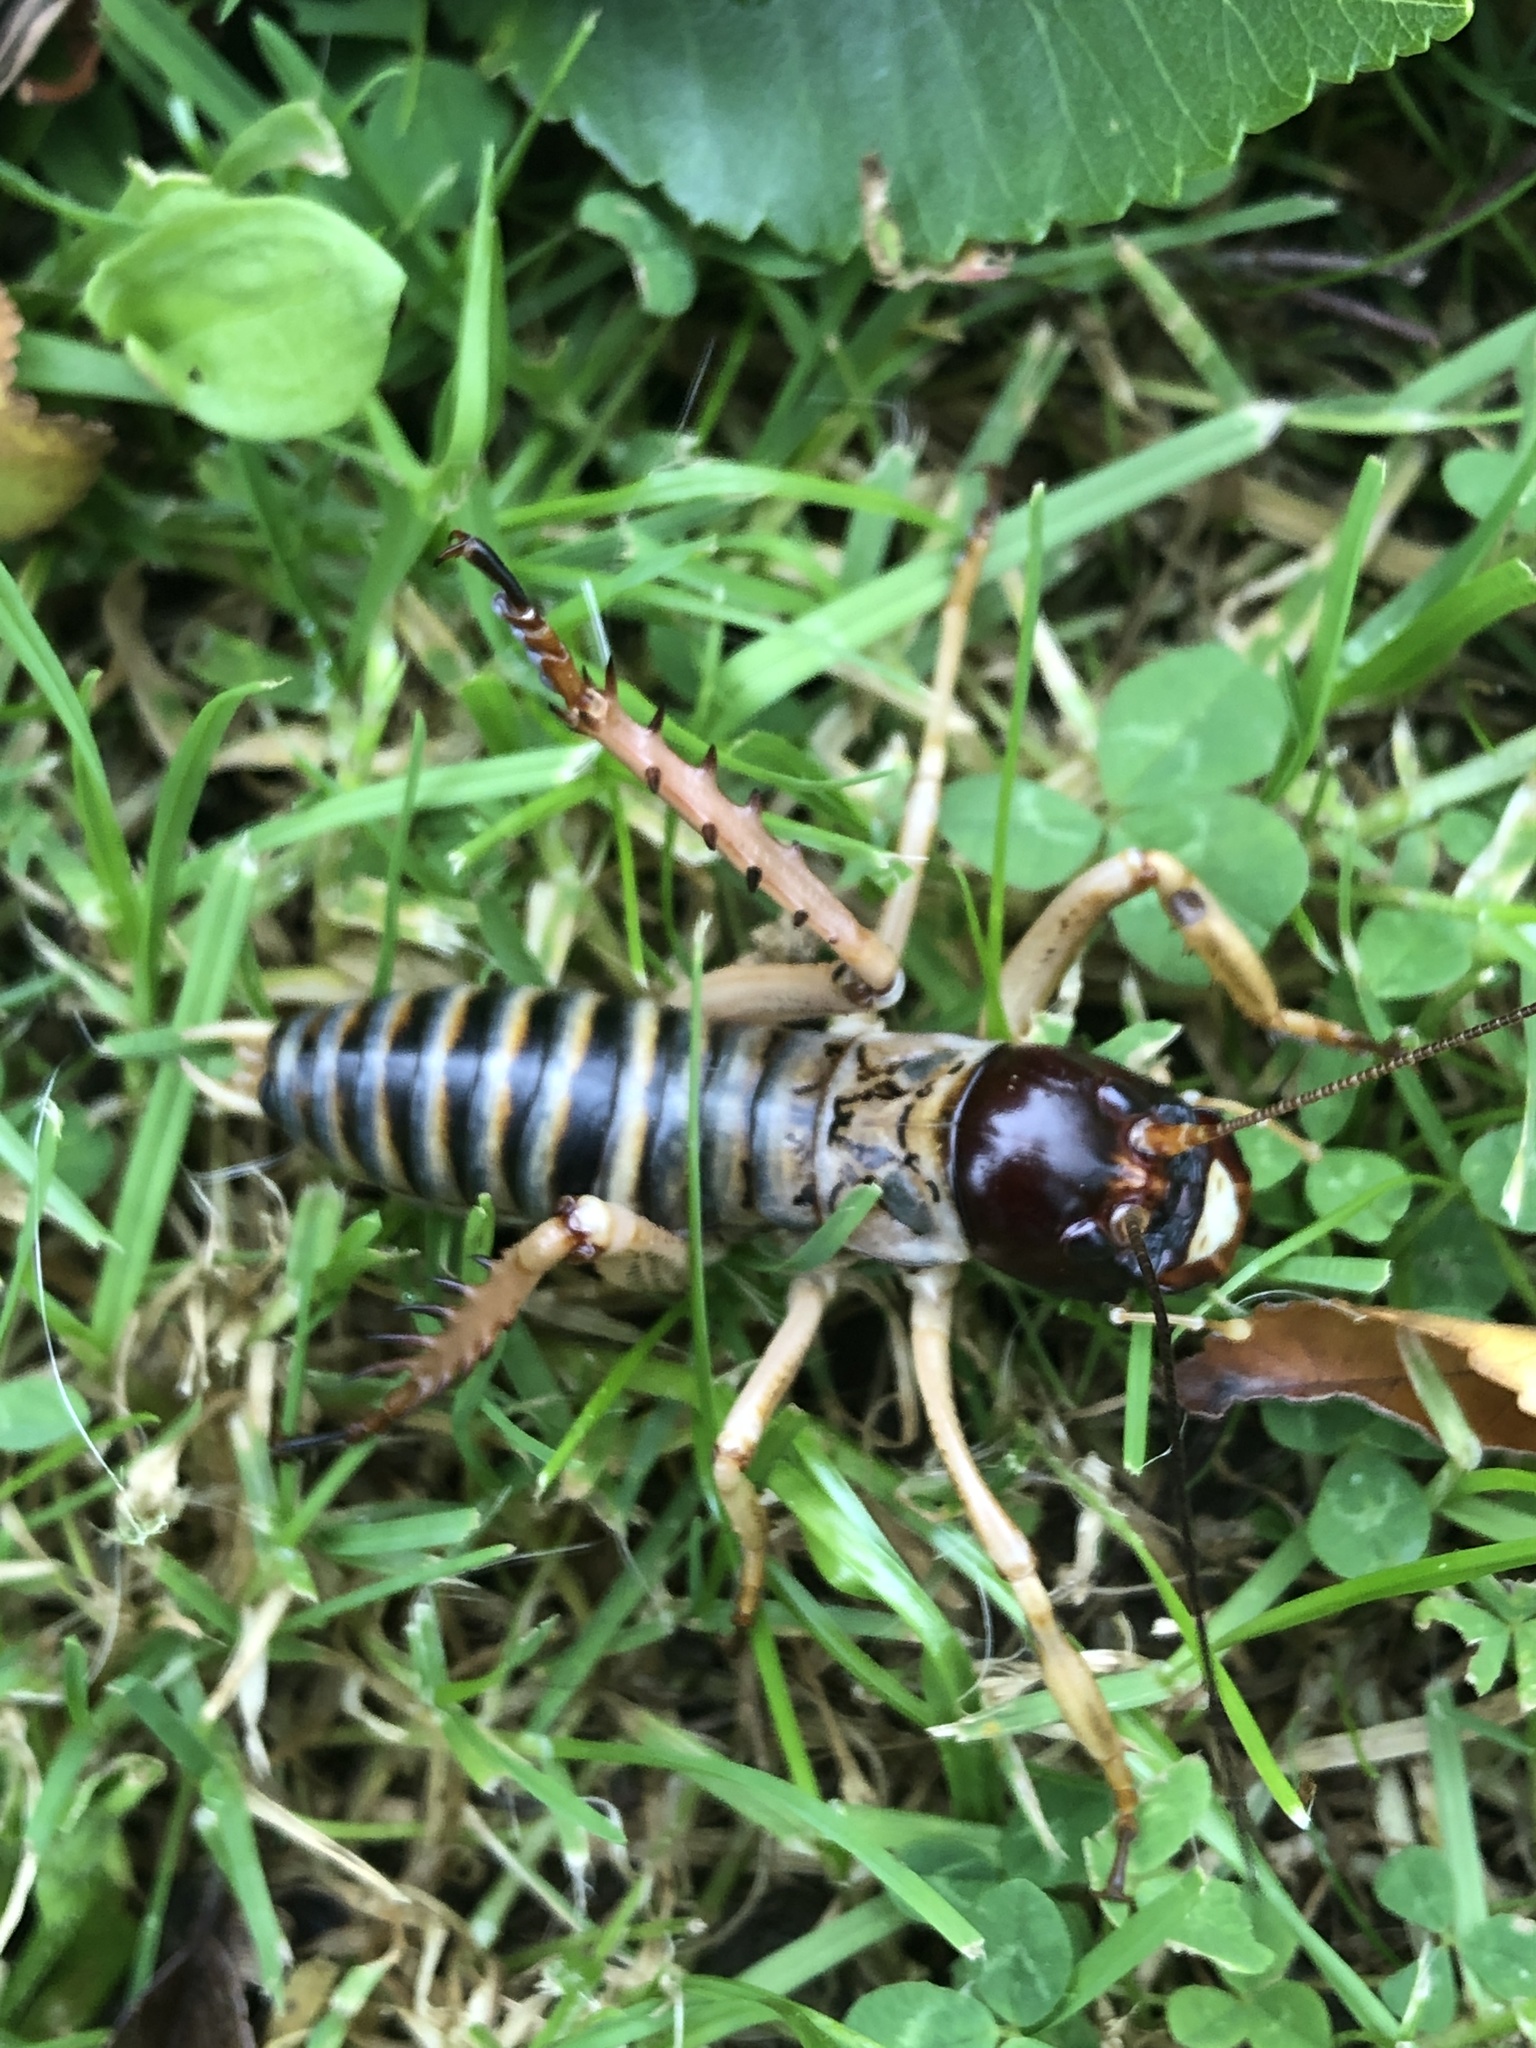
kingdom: Animalia
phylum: Arthropoda
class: Insecta
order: Orthoptera
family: Anostostomatidae
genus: Hemideina
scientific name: Hemideina femorata
